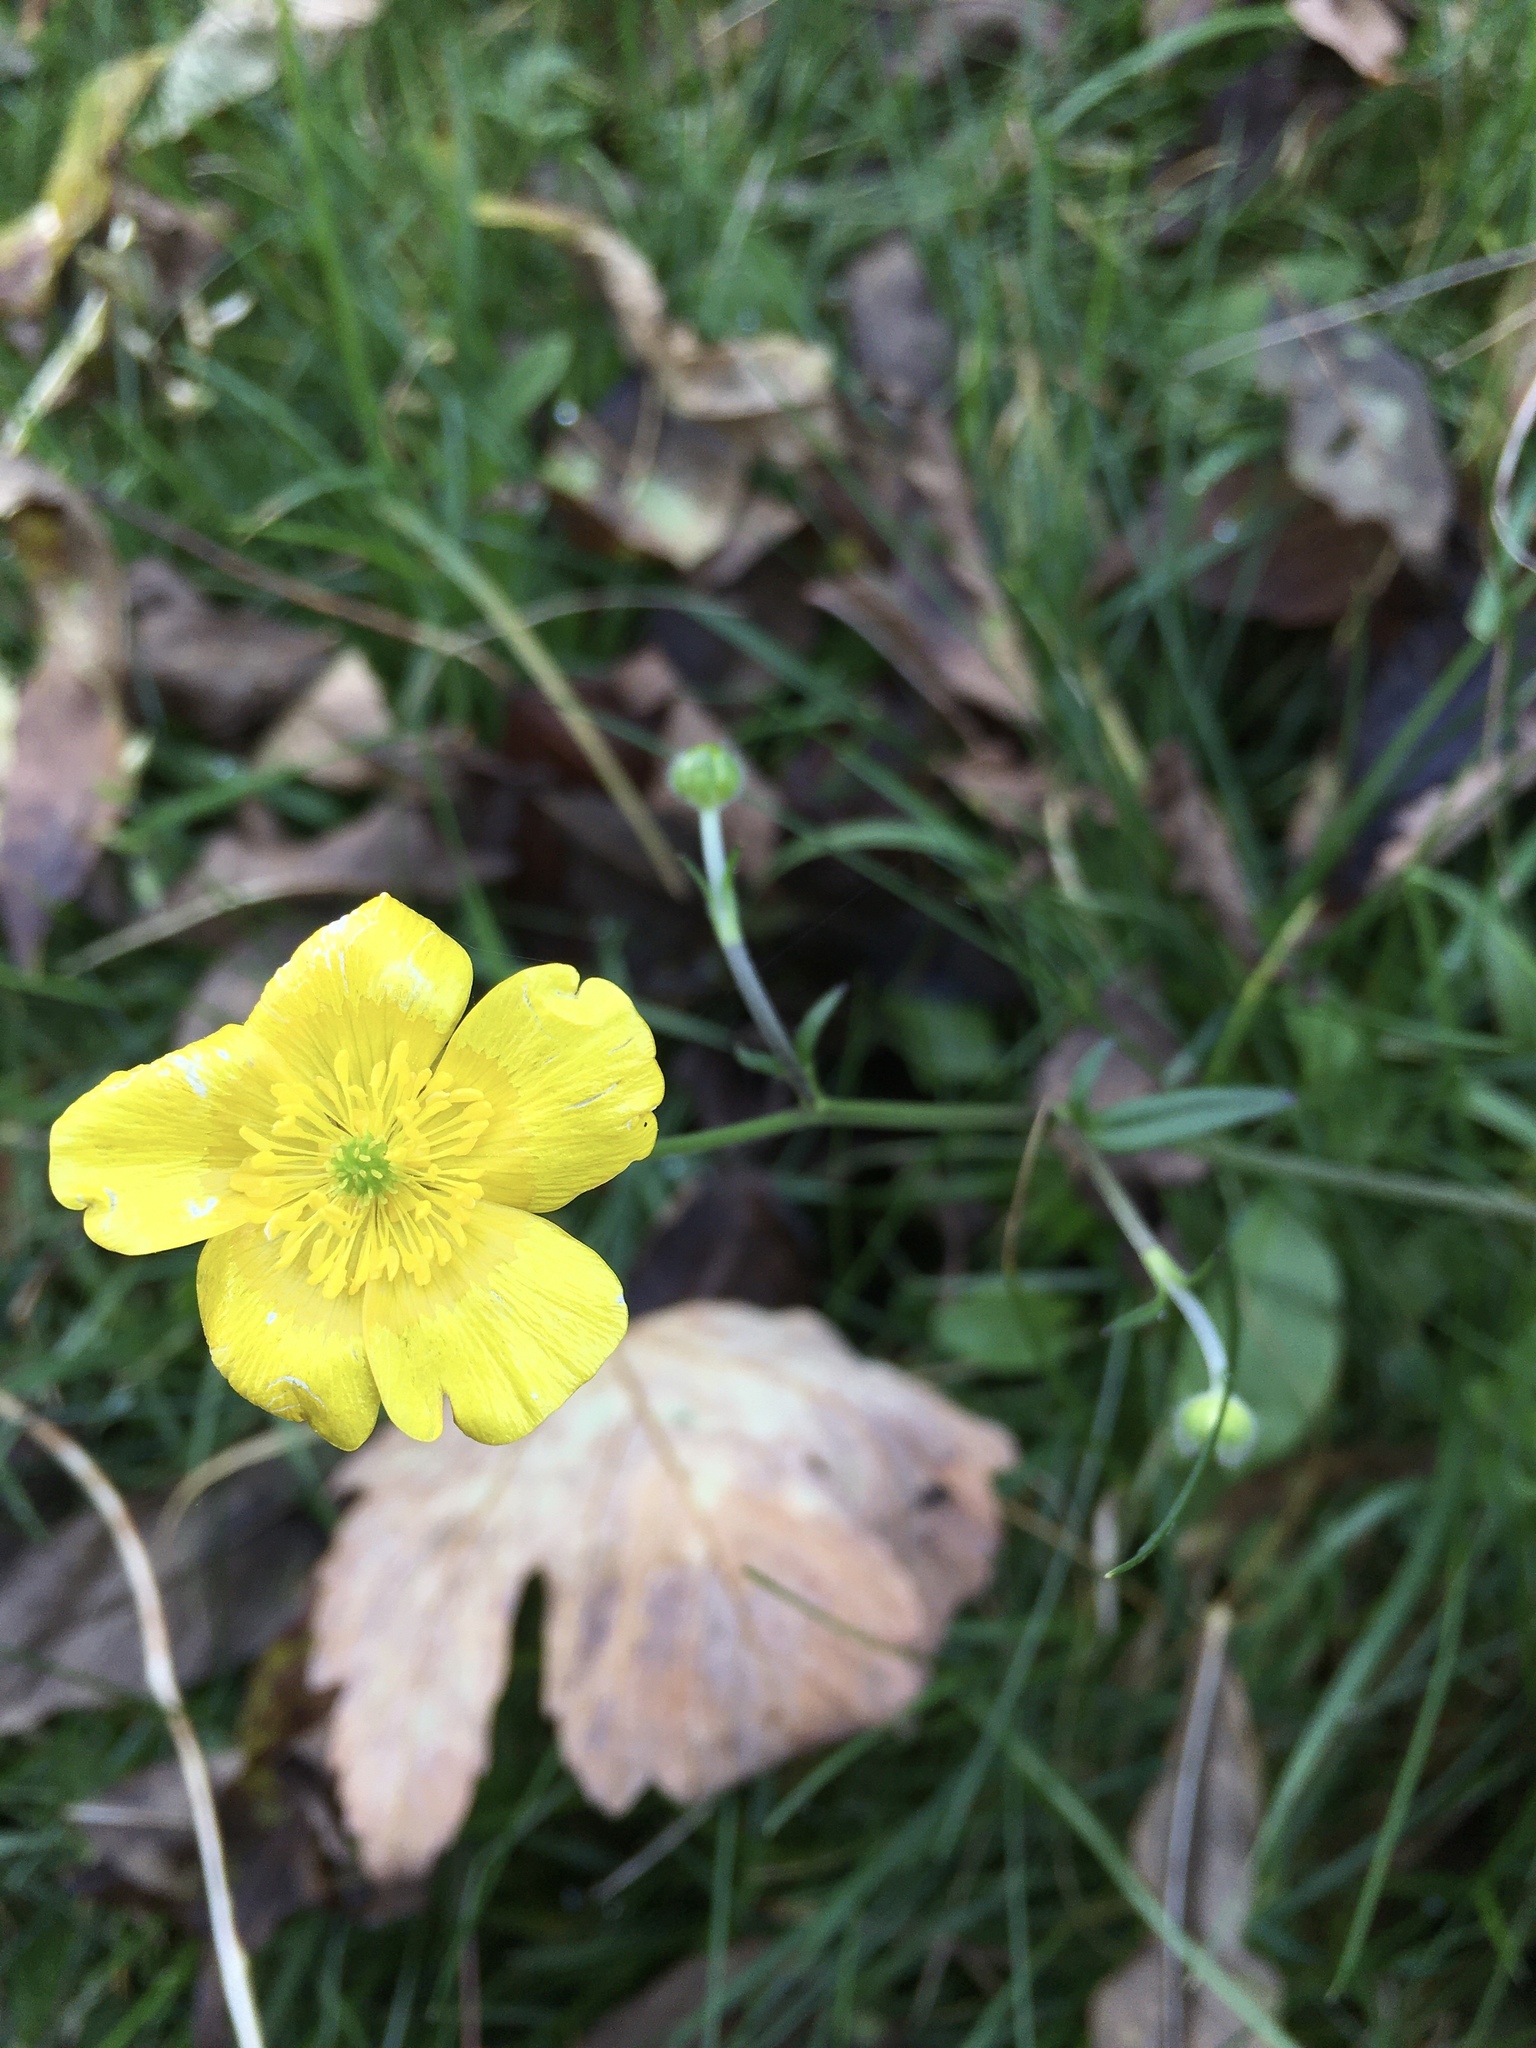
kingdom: Plantae
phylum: Tracheophyta
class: Magnoliopsida
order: Ranunculales
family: Ranunculaceae
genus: Ranunculus
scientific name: Ranunculus acris
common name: Meadow buttercup
